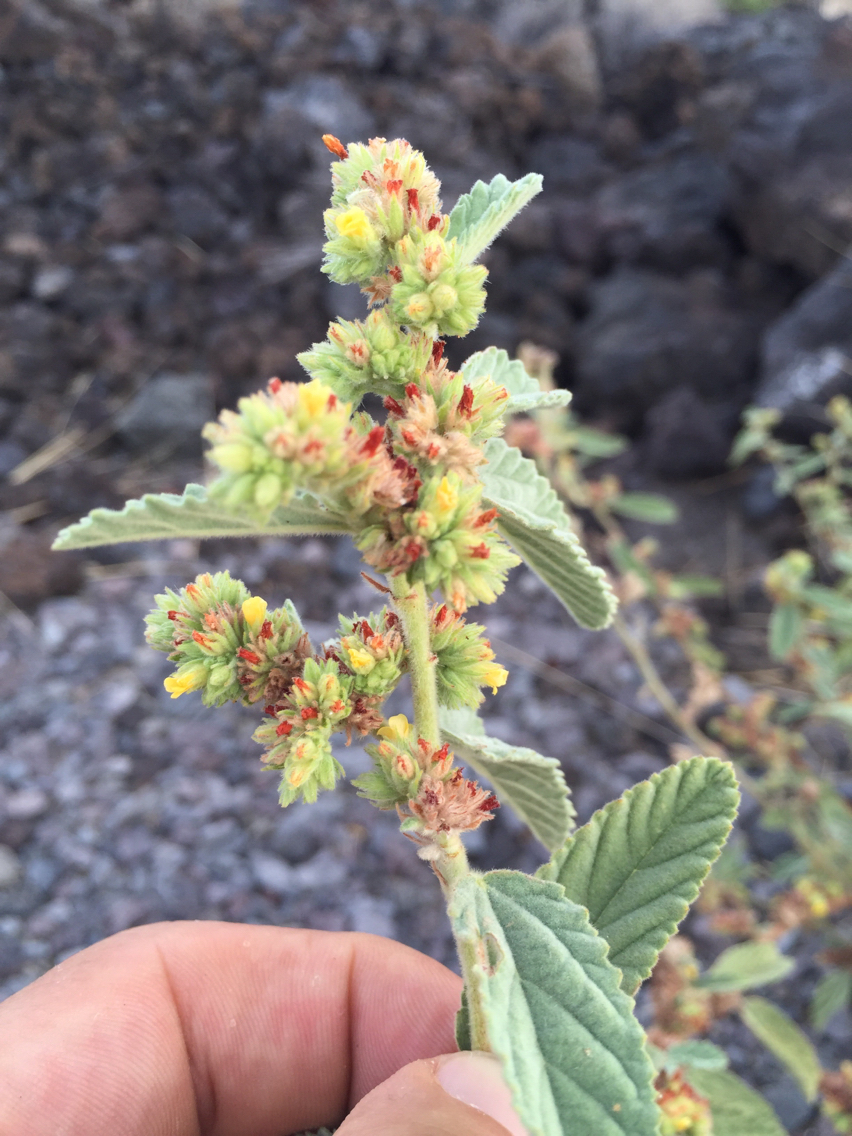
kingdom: Plantae
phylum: Tracheophyta
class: Magnoliopsida
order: Malvales
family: Malvaceae
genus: Waltheria
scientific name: Waltheria indica
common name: Leather-coat
